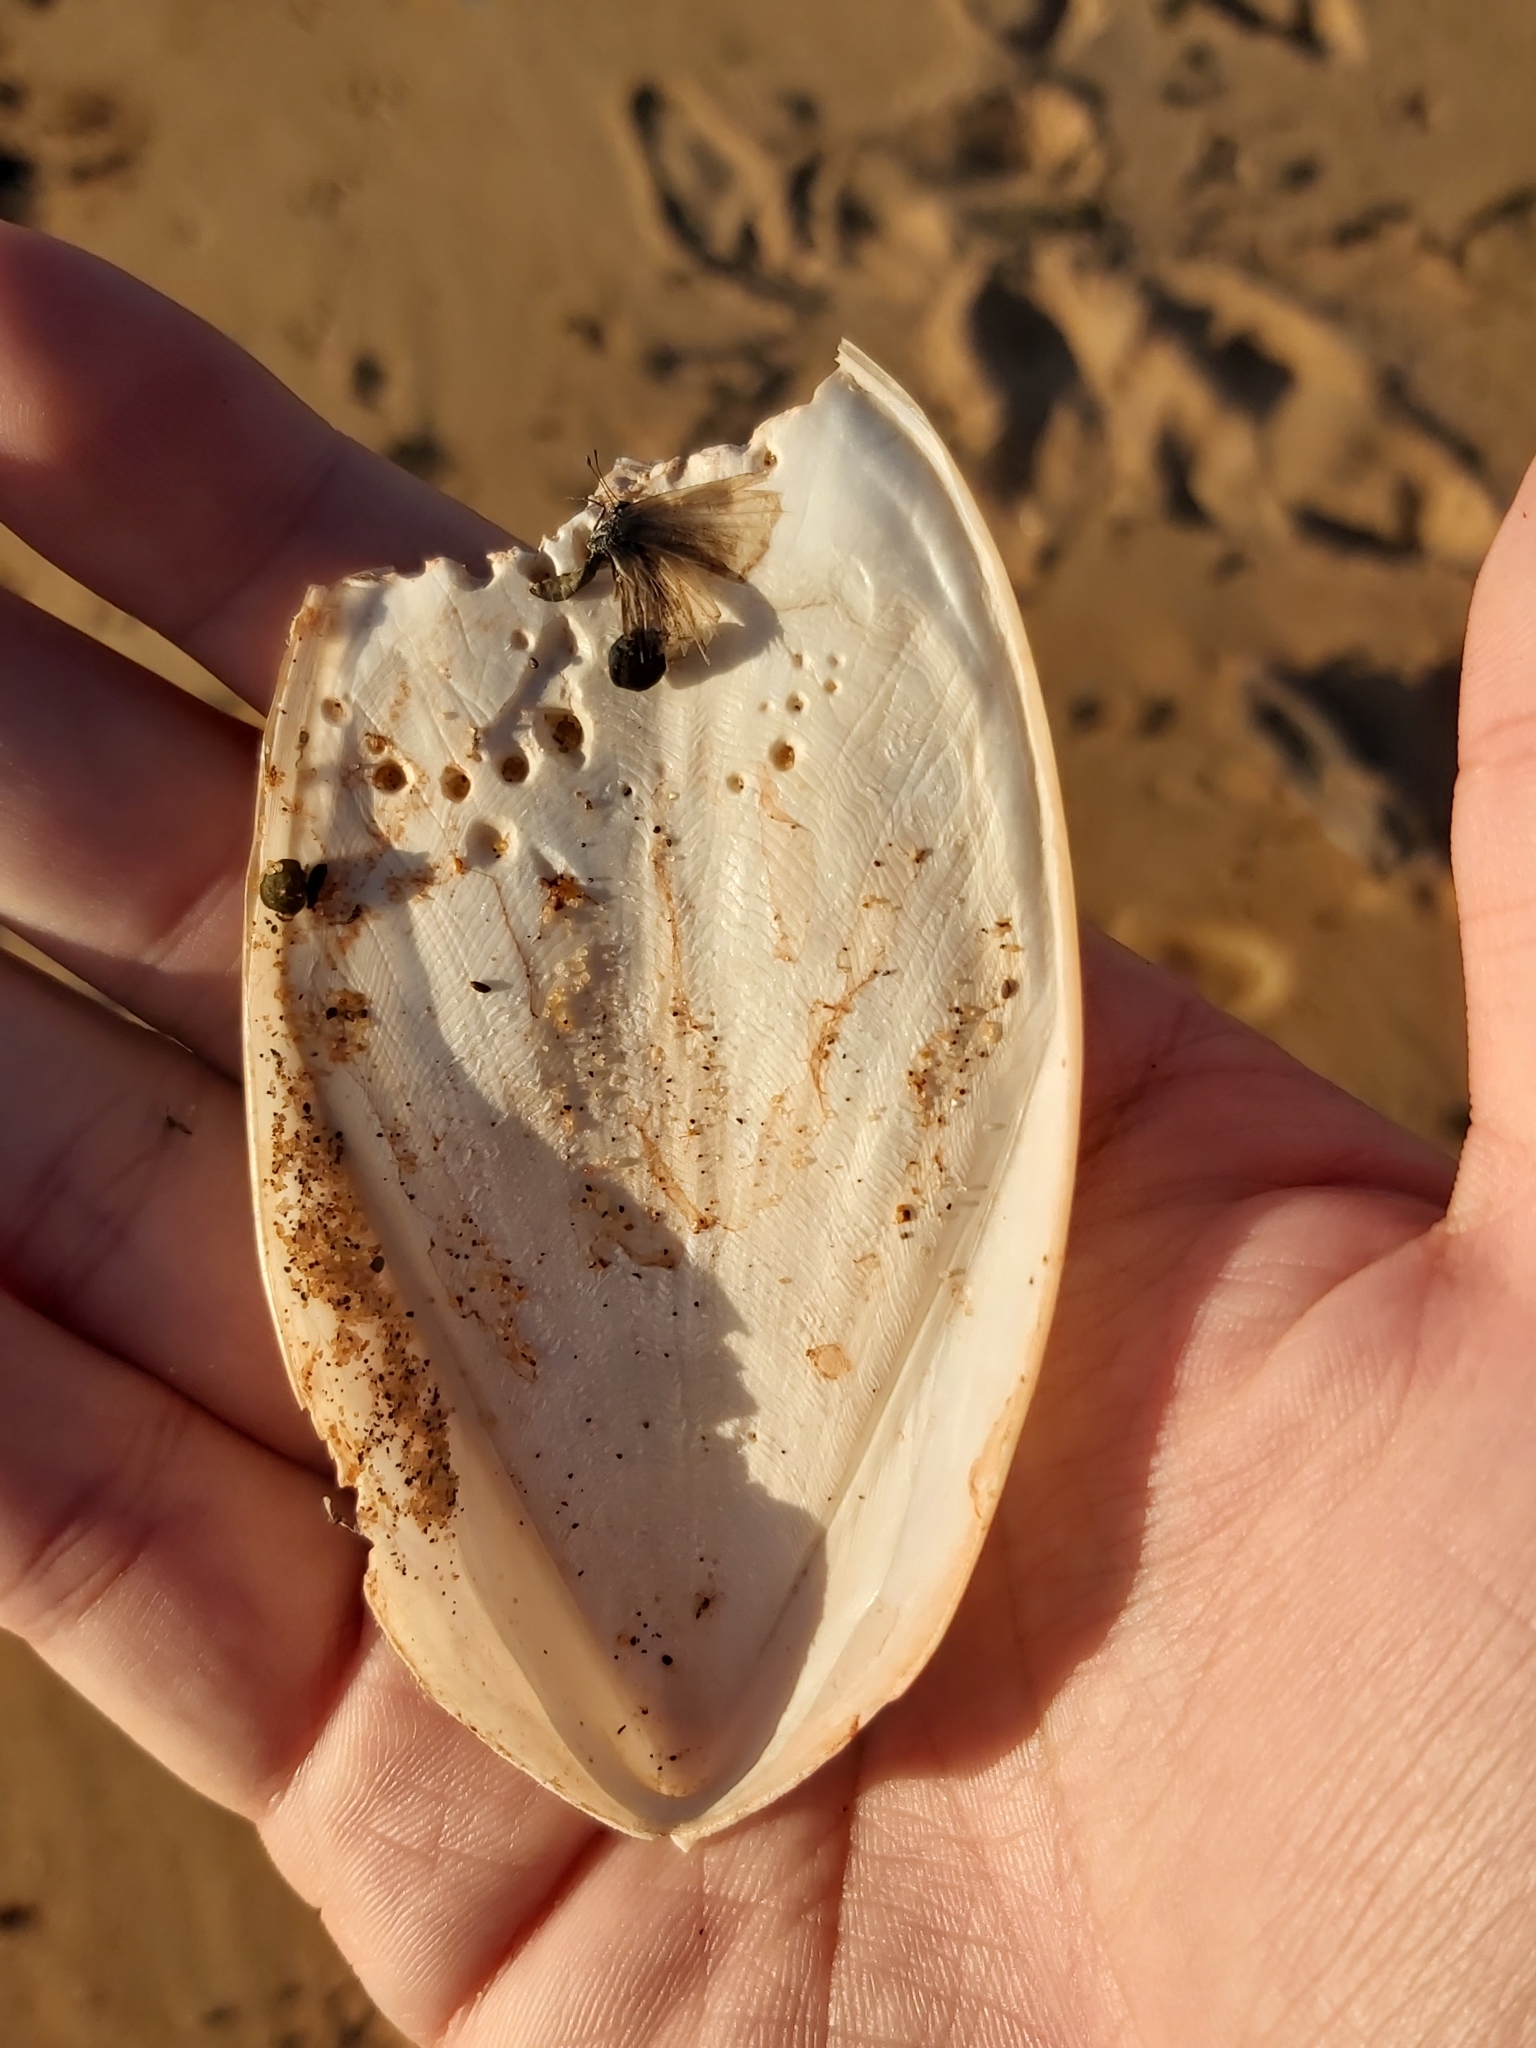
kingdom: Animalia
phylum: Mollusca
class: Cephalopoda
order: Sepiida
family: Sepiidae
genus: Ascarosepion
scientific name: Ascarosepion mestus
